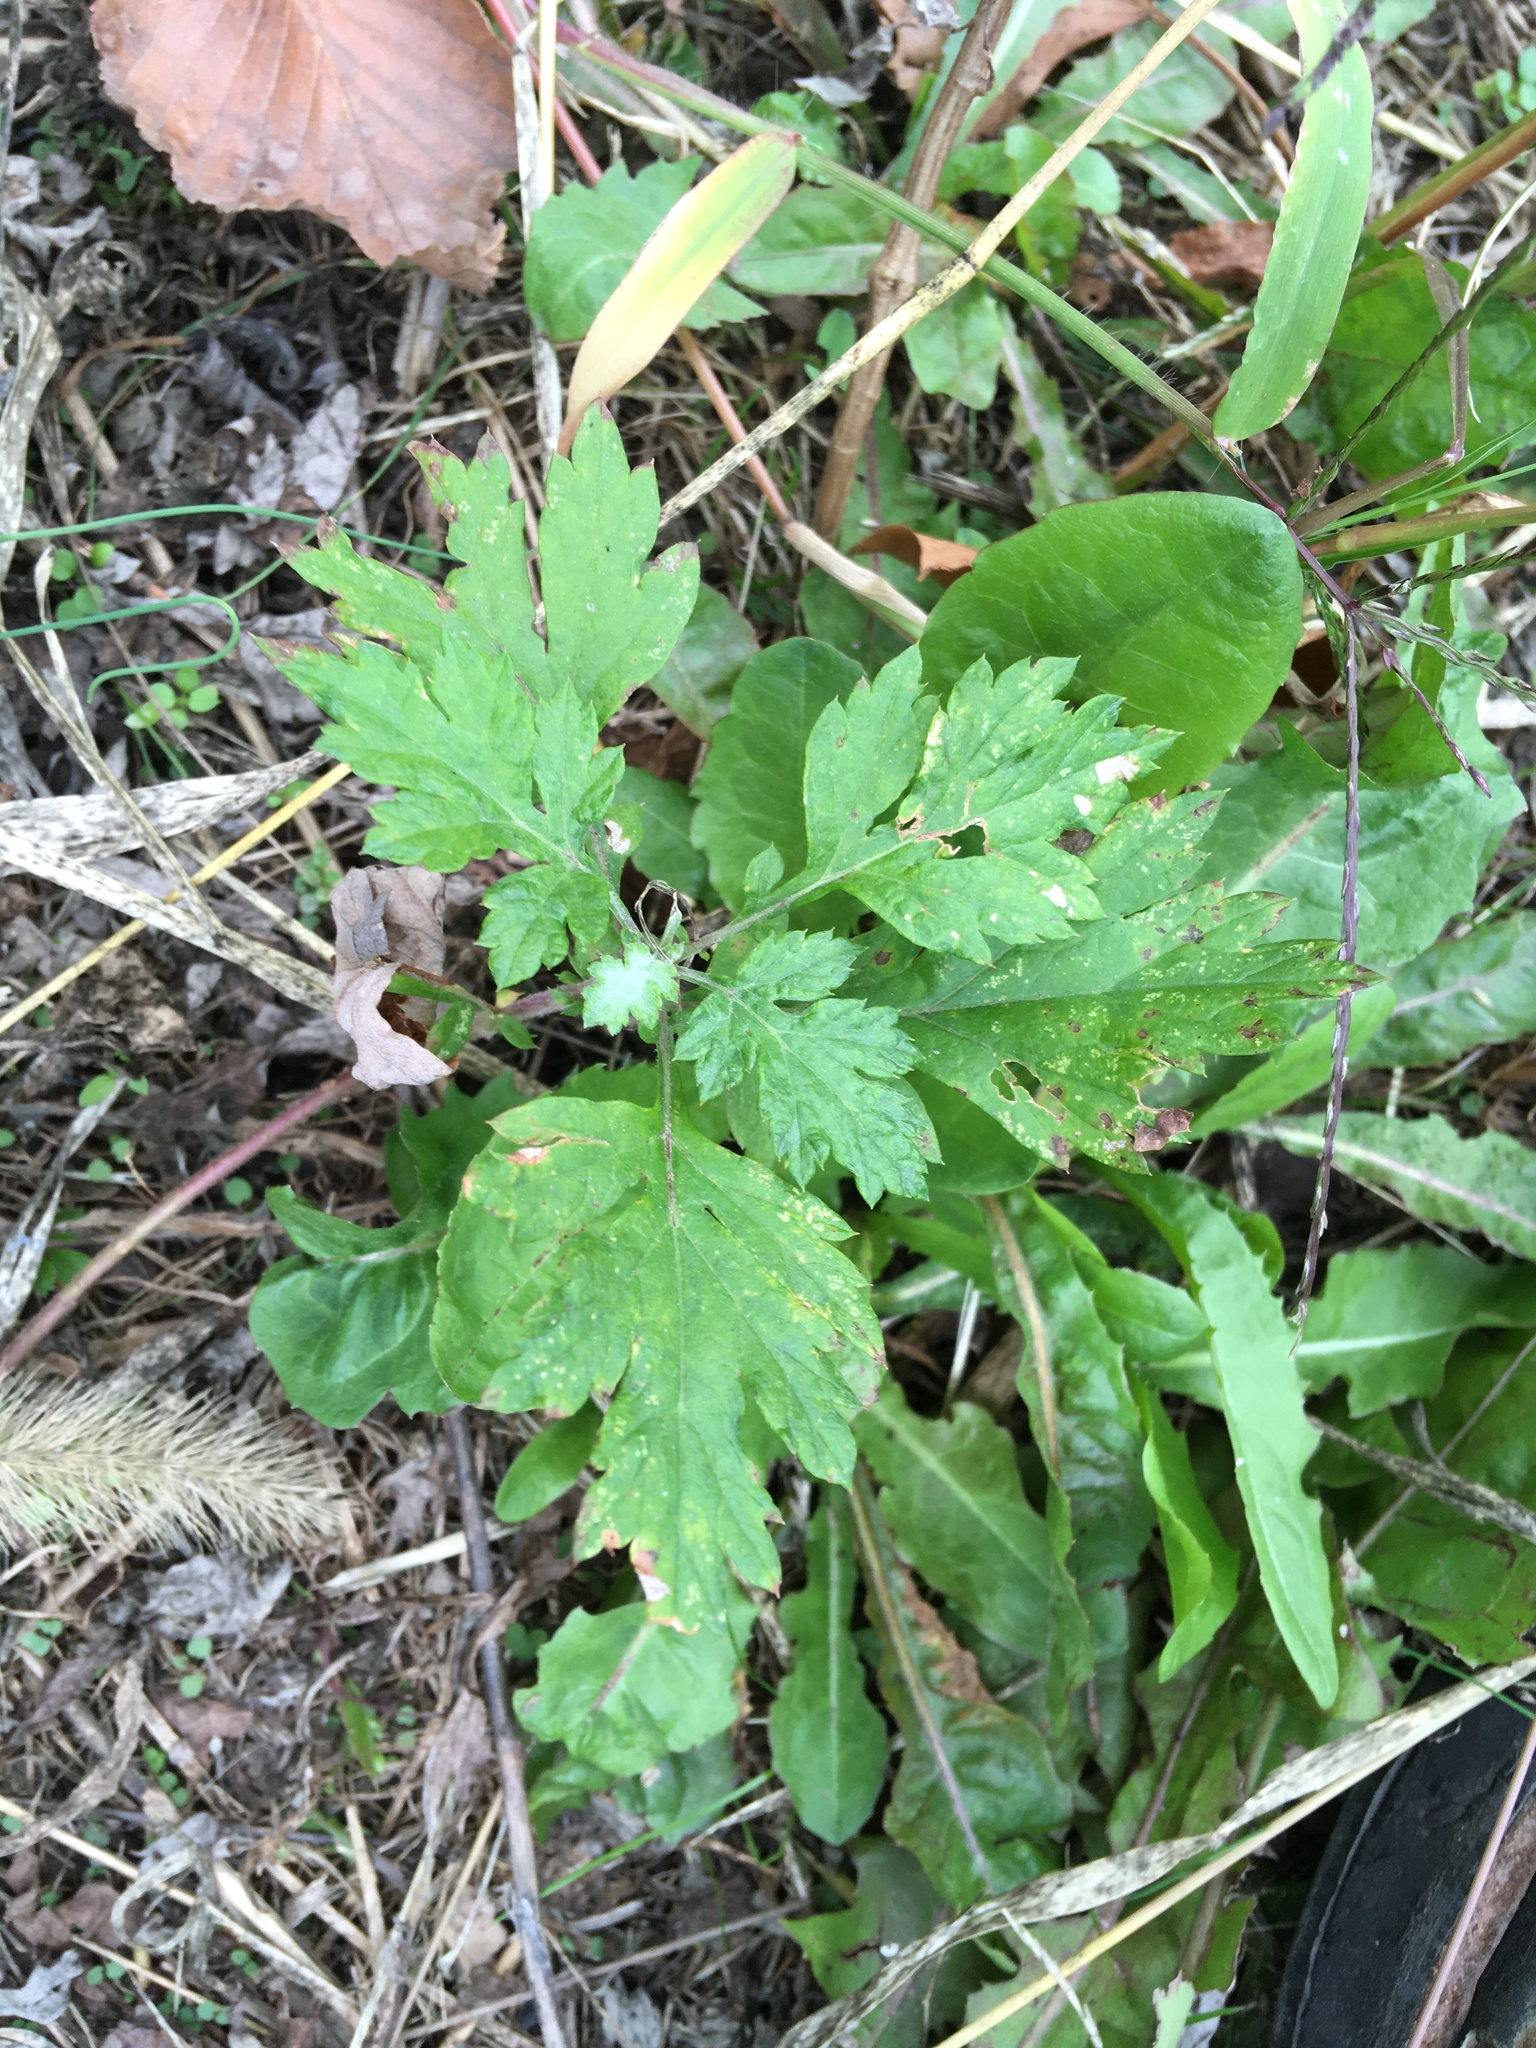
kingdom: Plantae
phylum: Tracheophyta
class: Magnoliopsida
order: Asterales
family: Asteraceae
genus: Artemisia
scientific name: Artemisia vulgaris
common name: Mugwort
